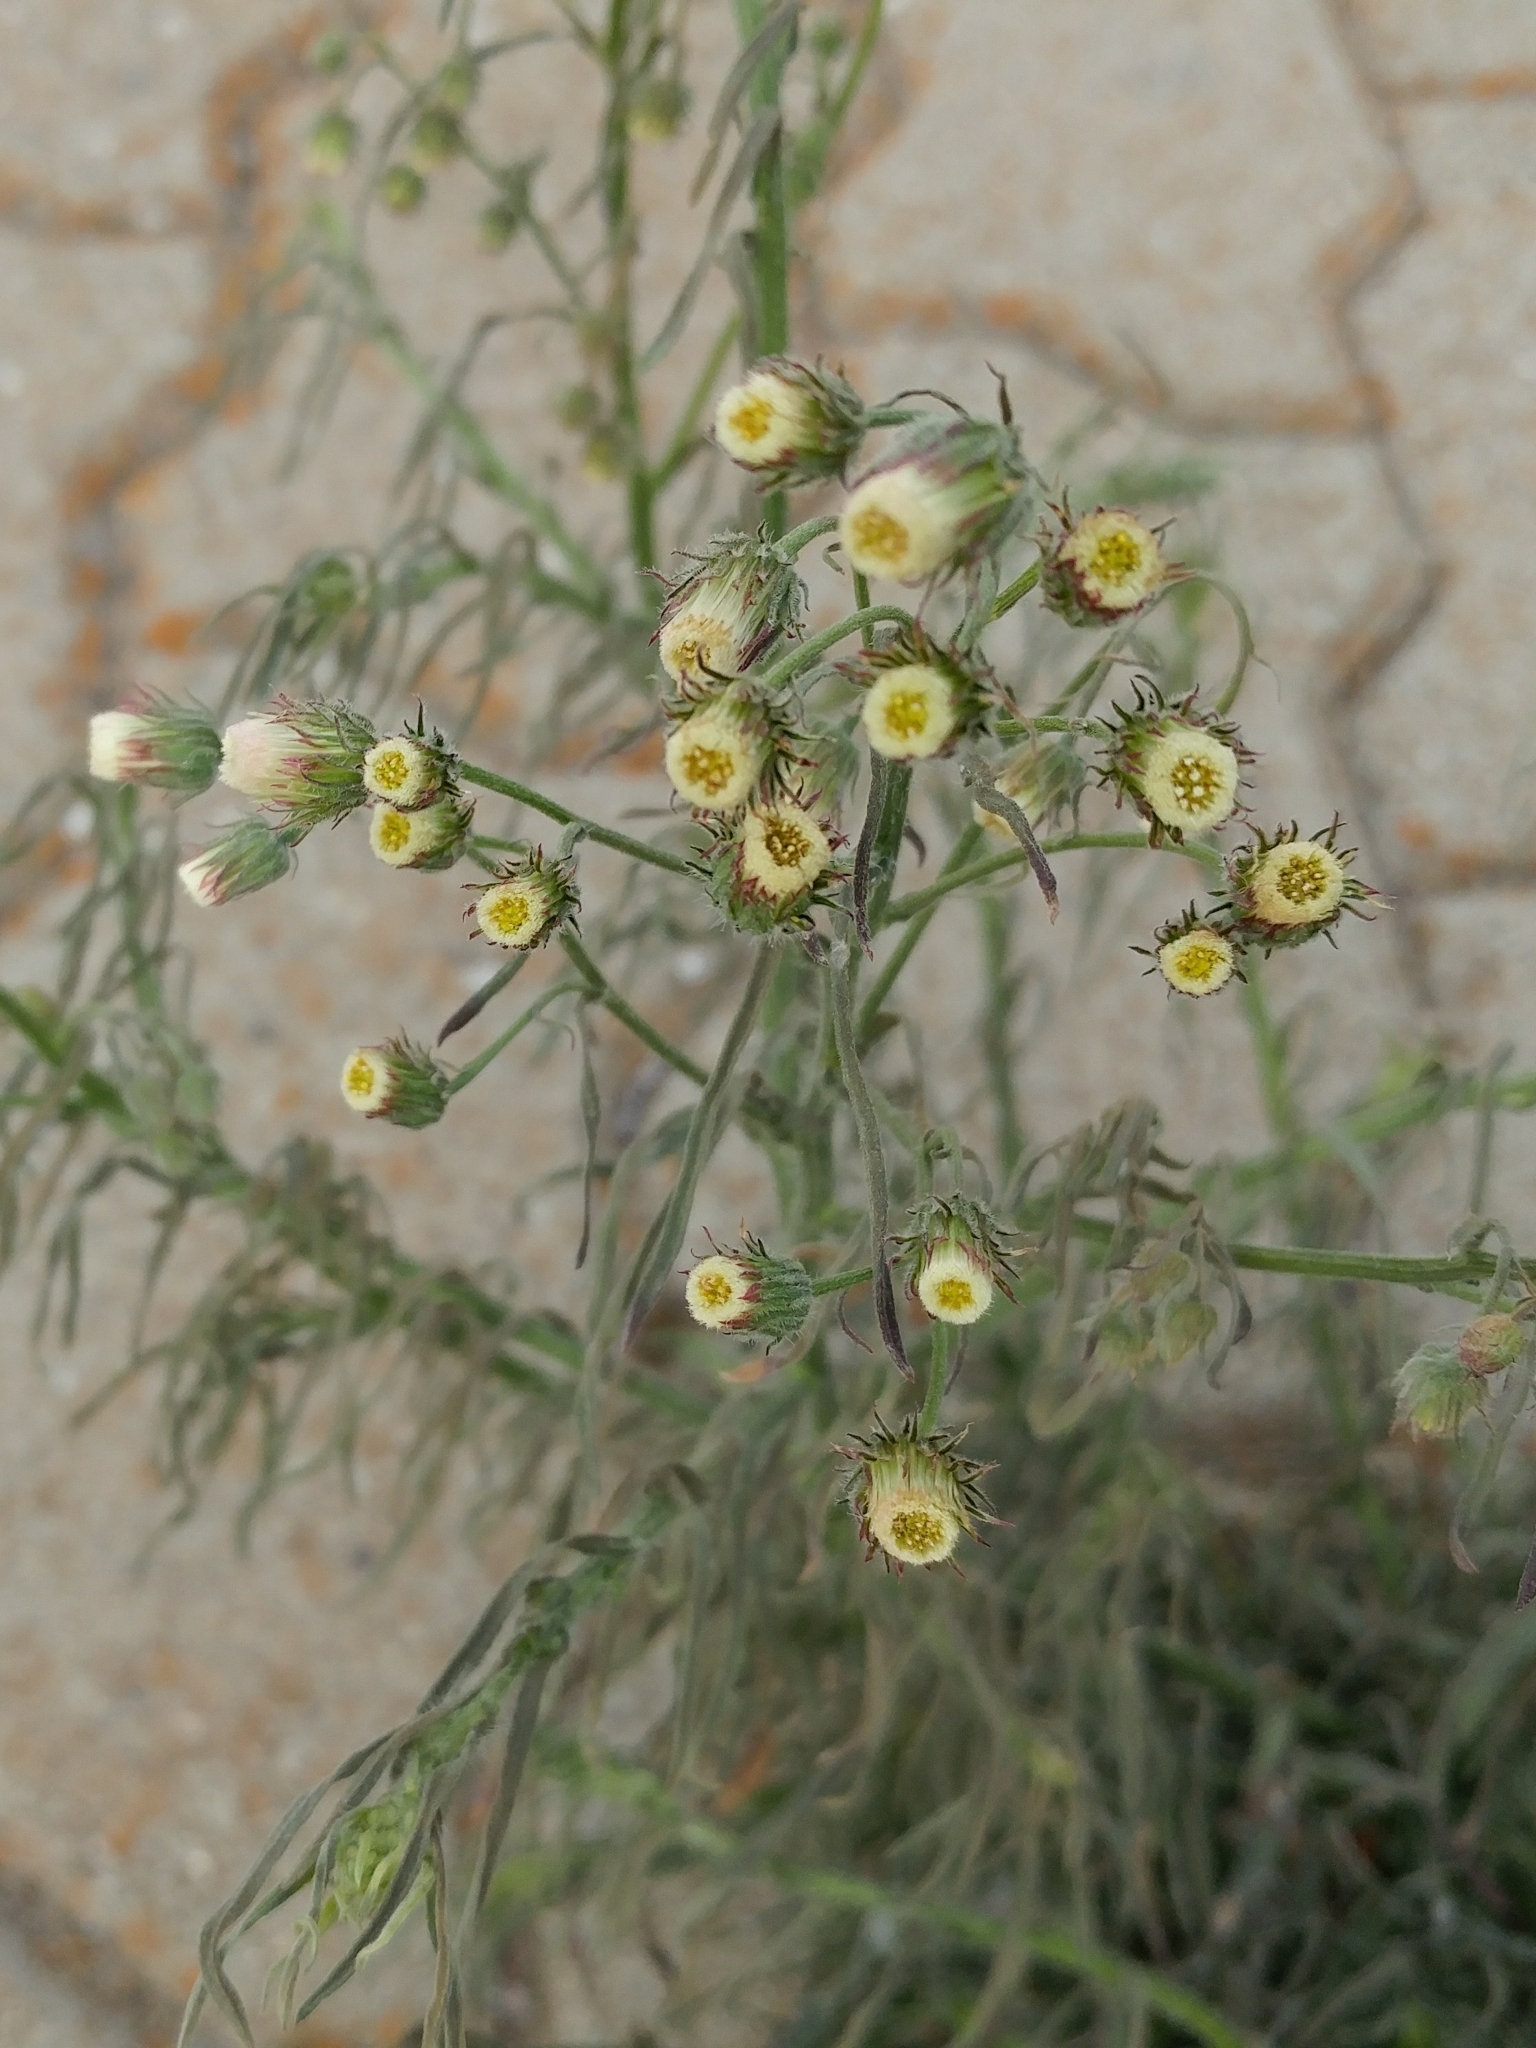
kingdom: Plantae
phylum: Tracheophyta
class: Magnoliopsida
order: Asterales
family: Asteraceae
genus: Erigeron
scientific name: Erigeron bonariensis
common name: Argentine fleabane
